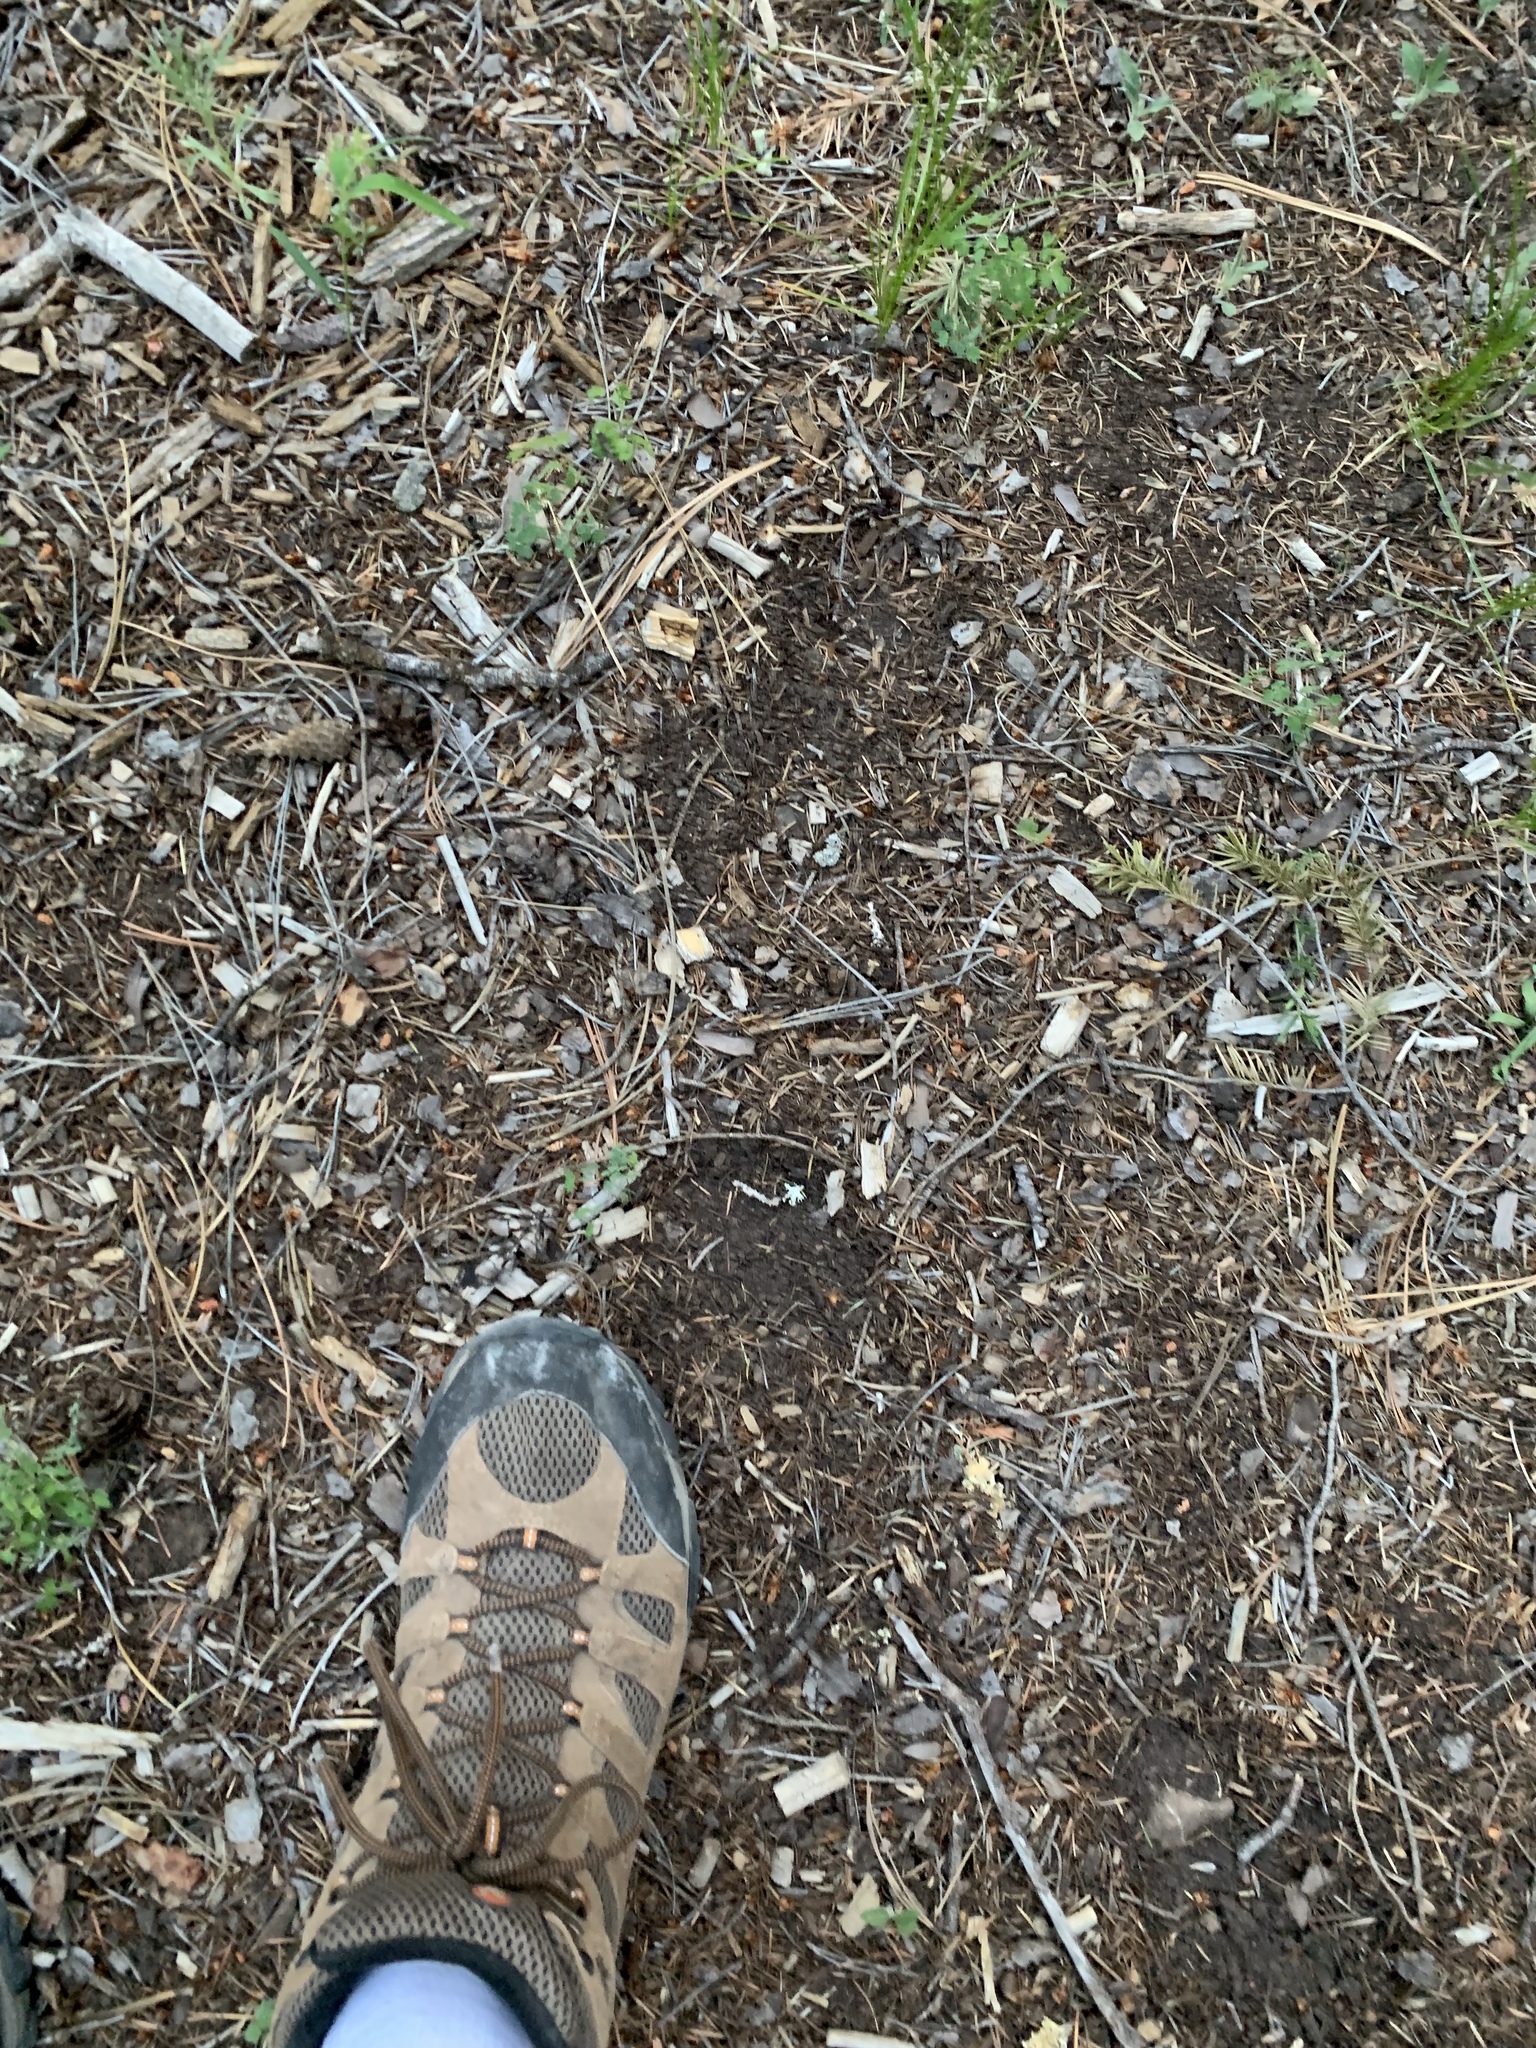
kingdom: Animalia
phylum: Chordata
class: Mammalia
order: Carnivora
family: Ursidae
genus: Ursus
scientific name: Ursus americanus
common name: American black bear
